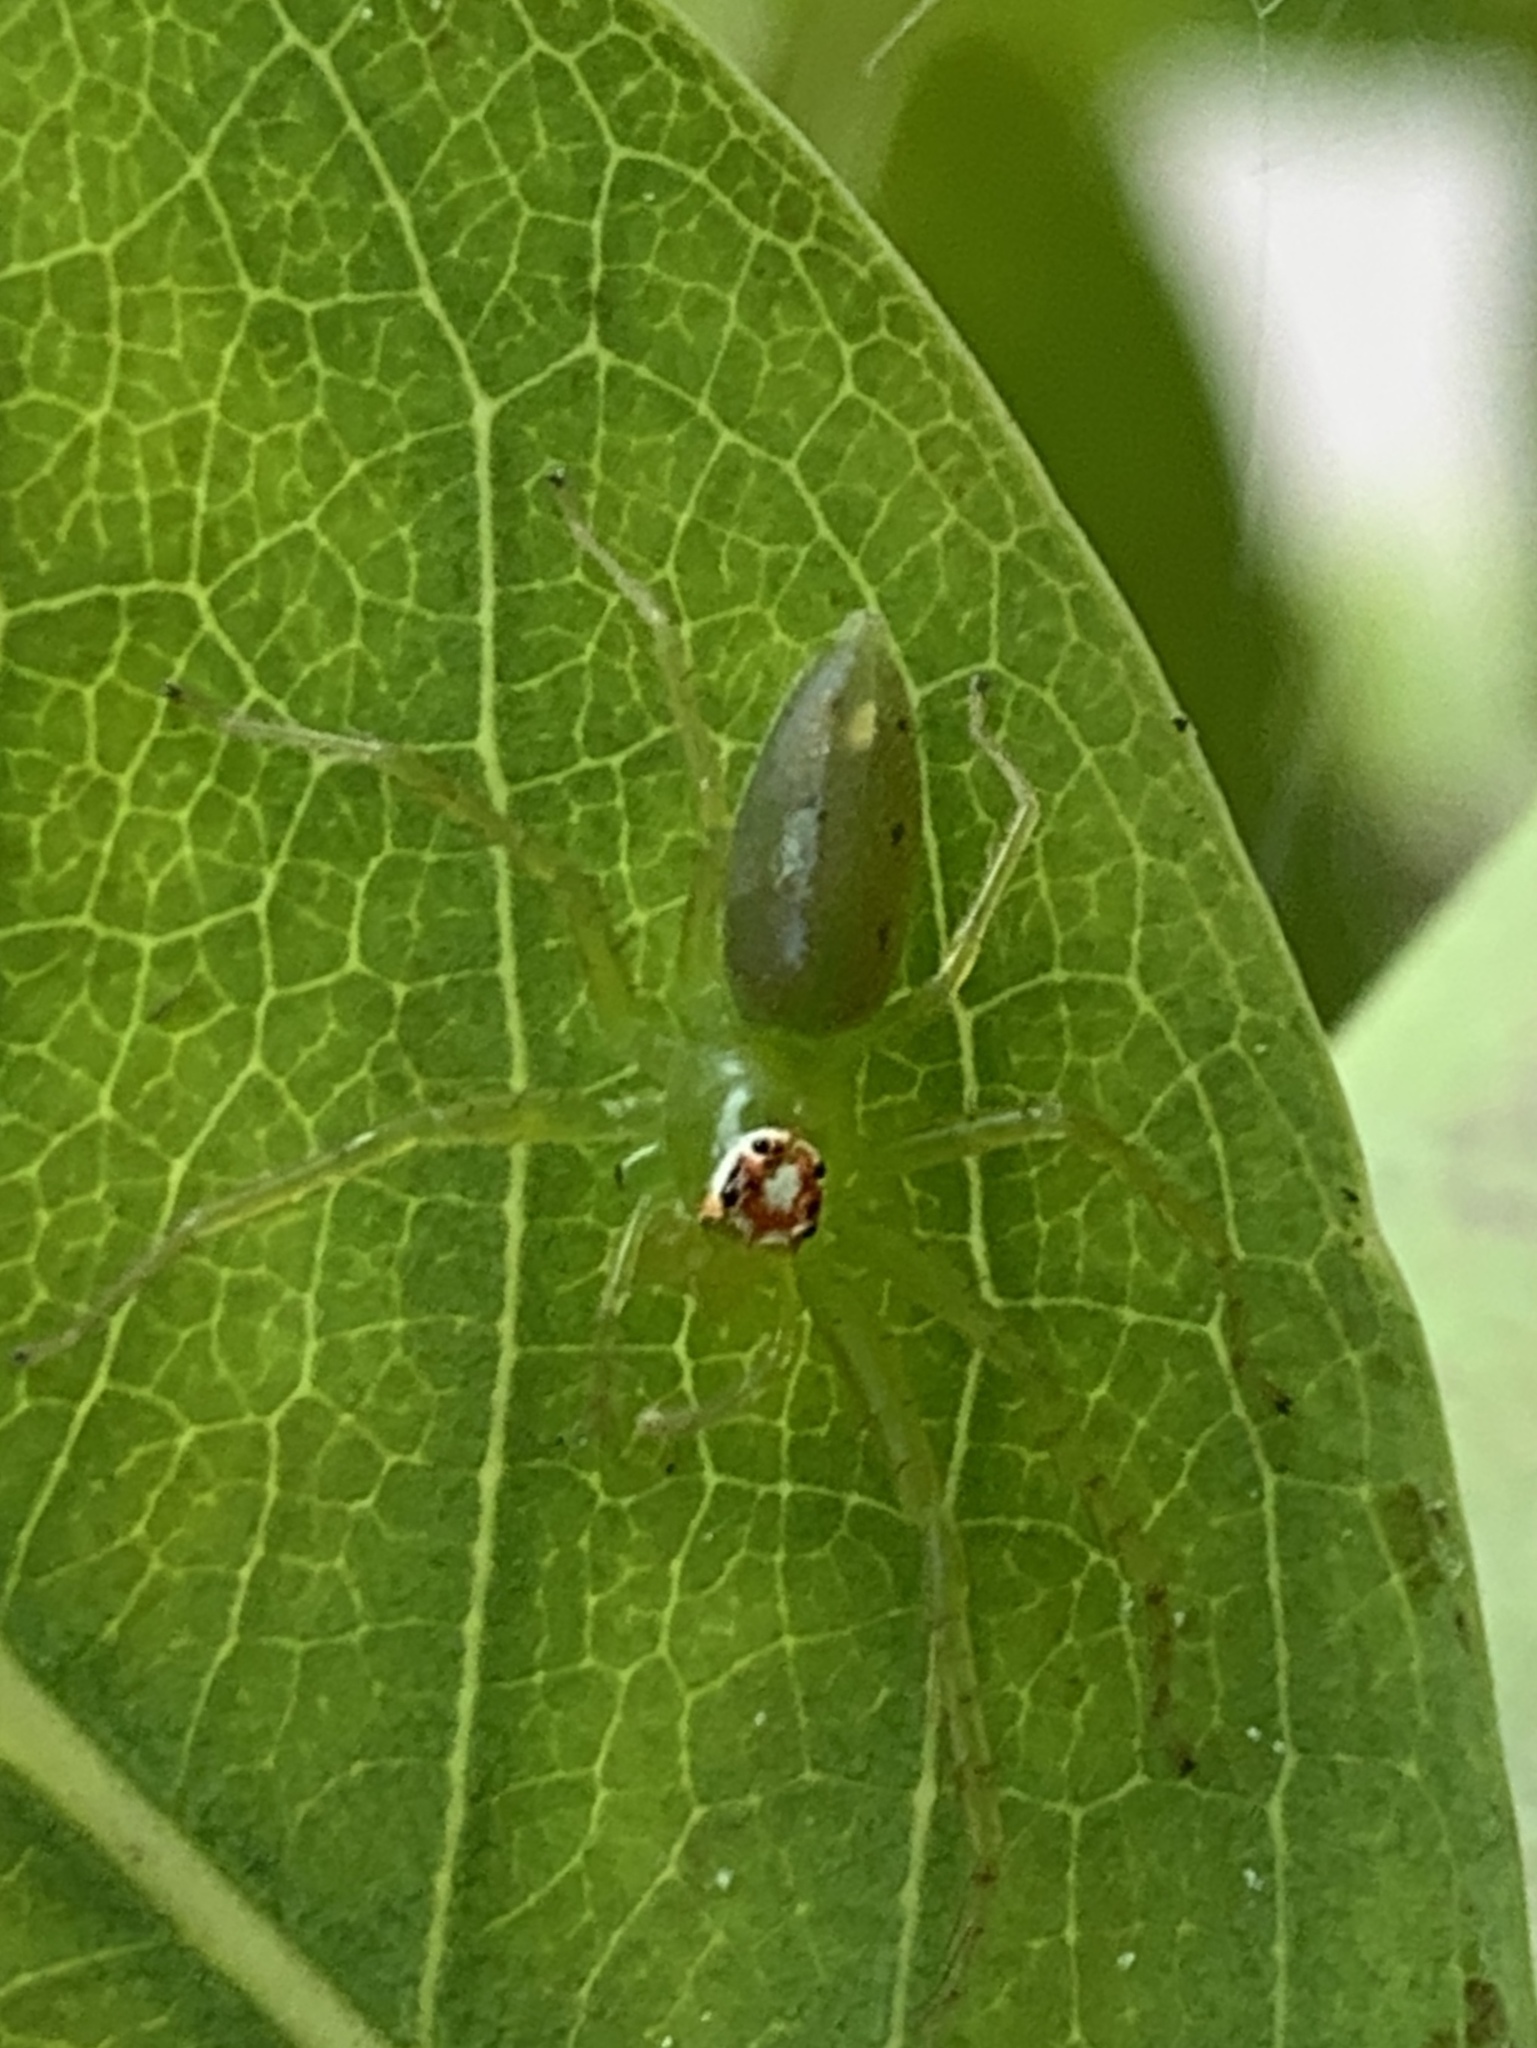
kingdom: Animalia
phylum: Arthropoda
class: Arachnida
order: Araneae
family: Salticidae
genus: Lyssomanes
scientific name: Lyssomanes viridis
